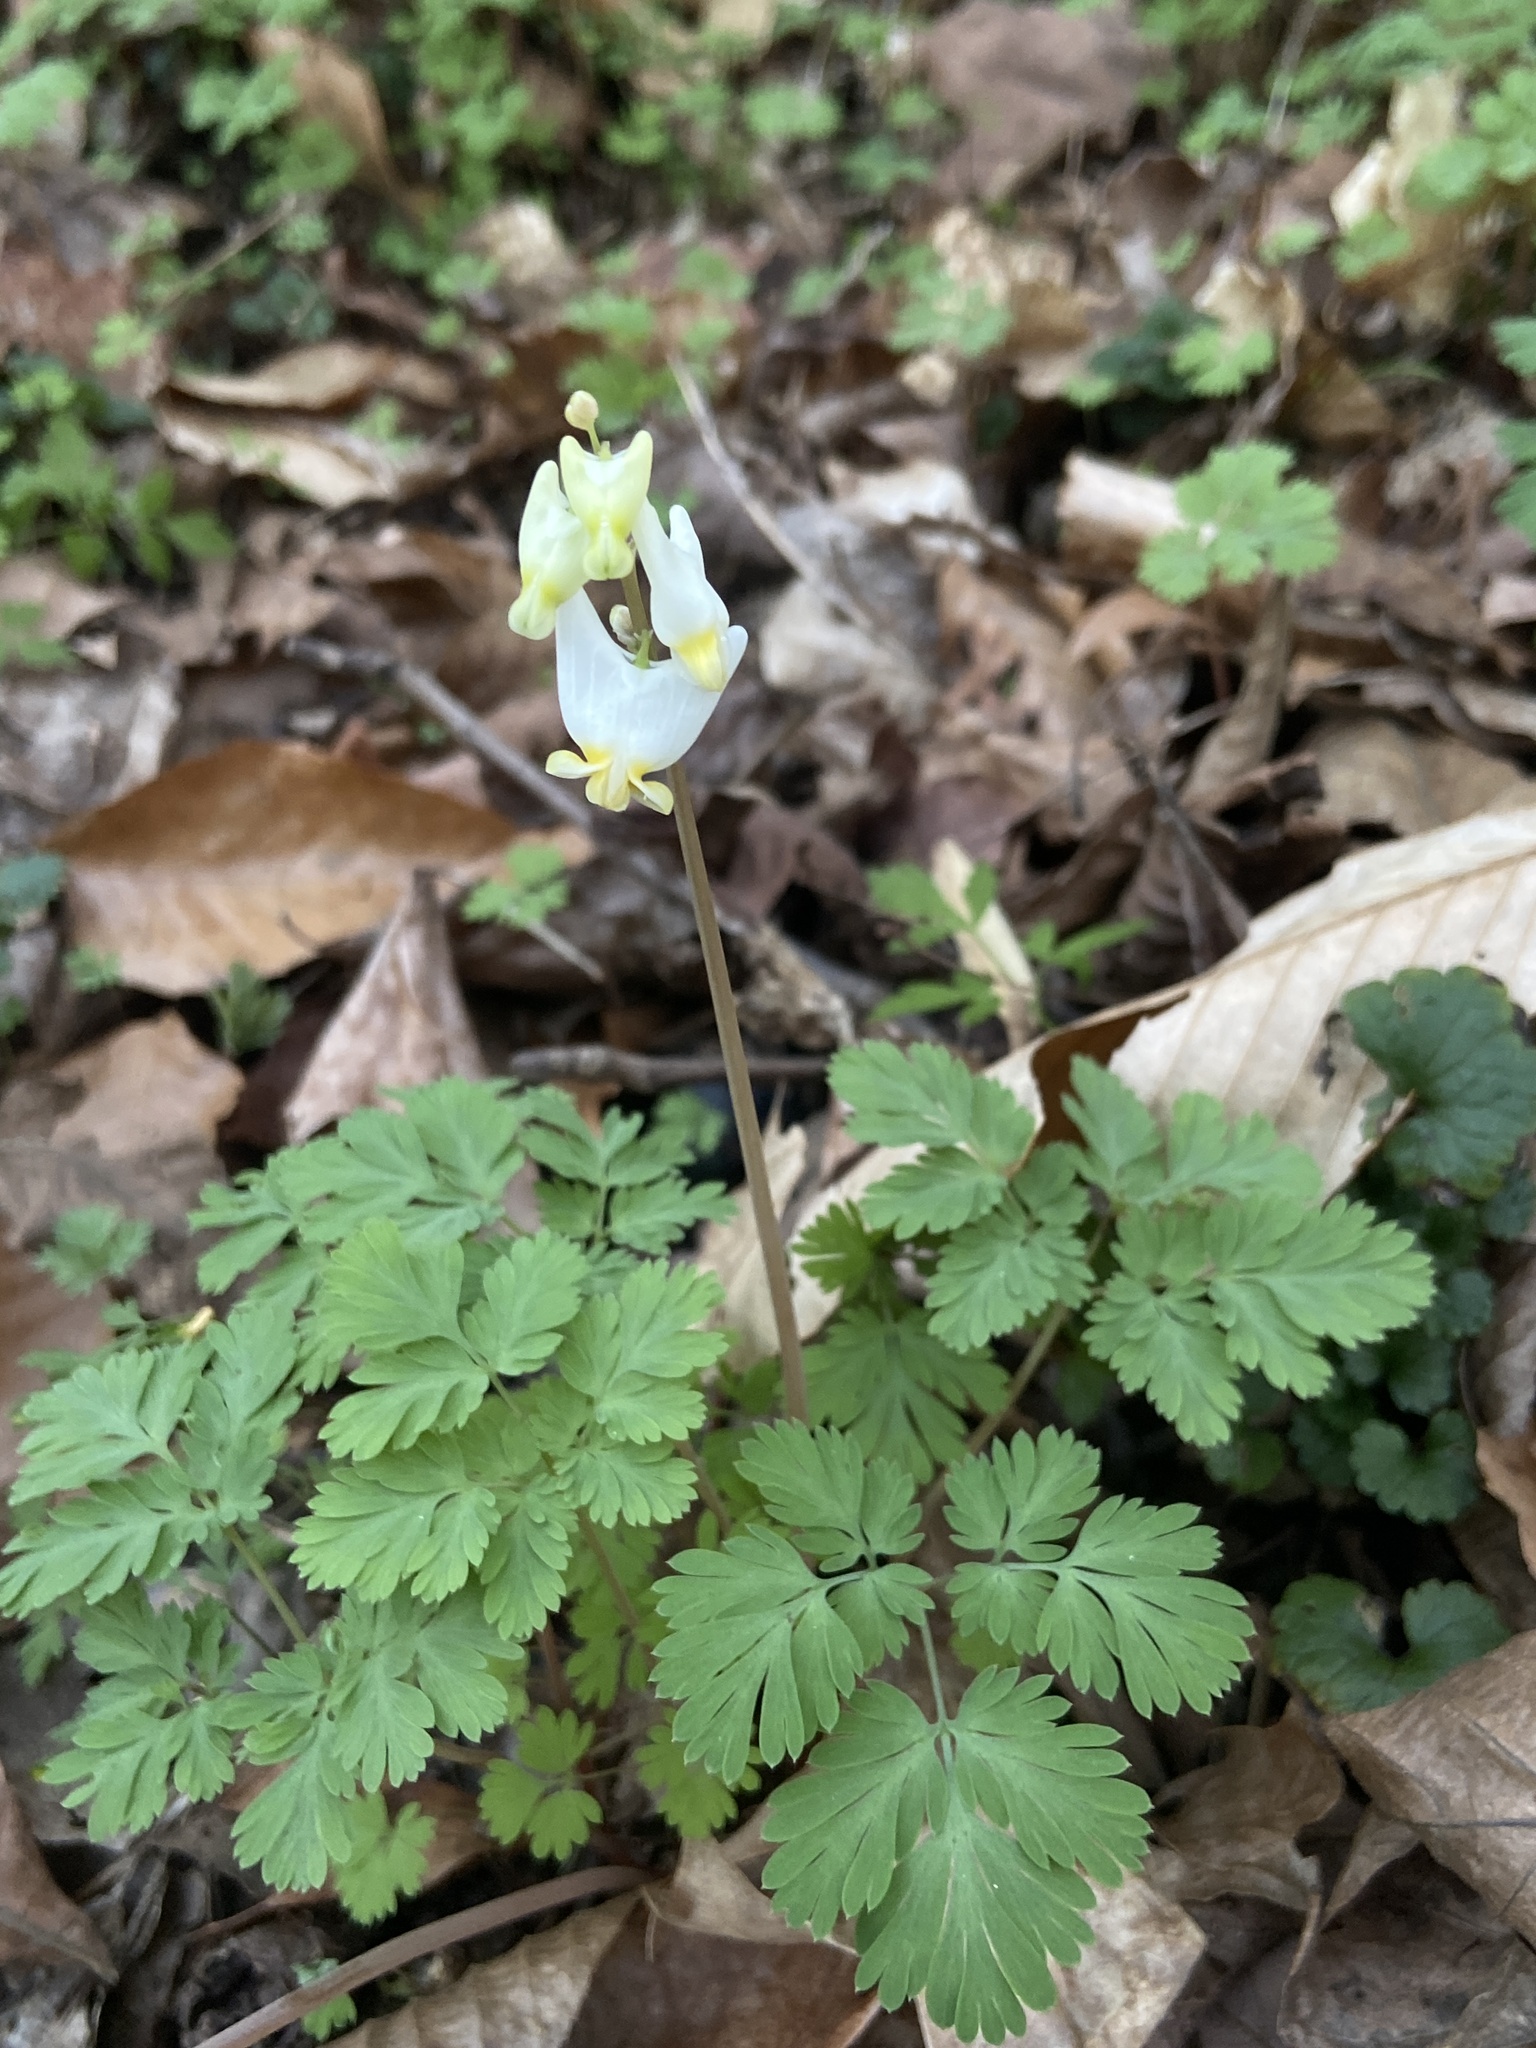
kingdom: Plantae
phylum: Tracheophyta
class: Magnoliopsida
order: Ranunculales
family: Papaveraceae
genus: Dicentra
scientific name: Dicentra cucullaria
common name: Dutchman's breeches
